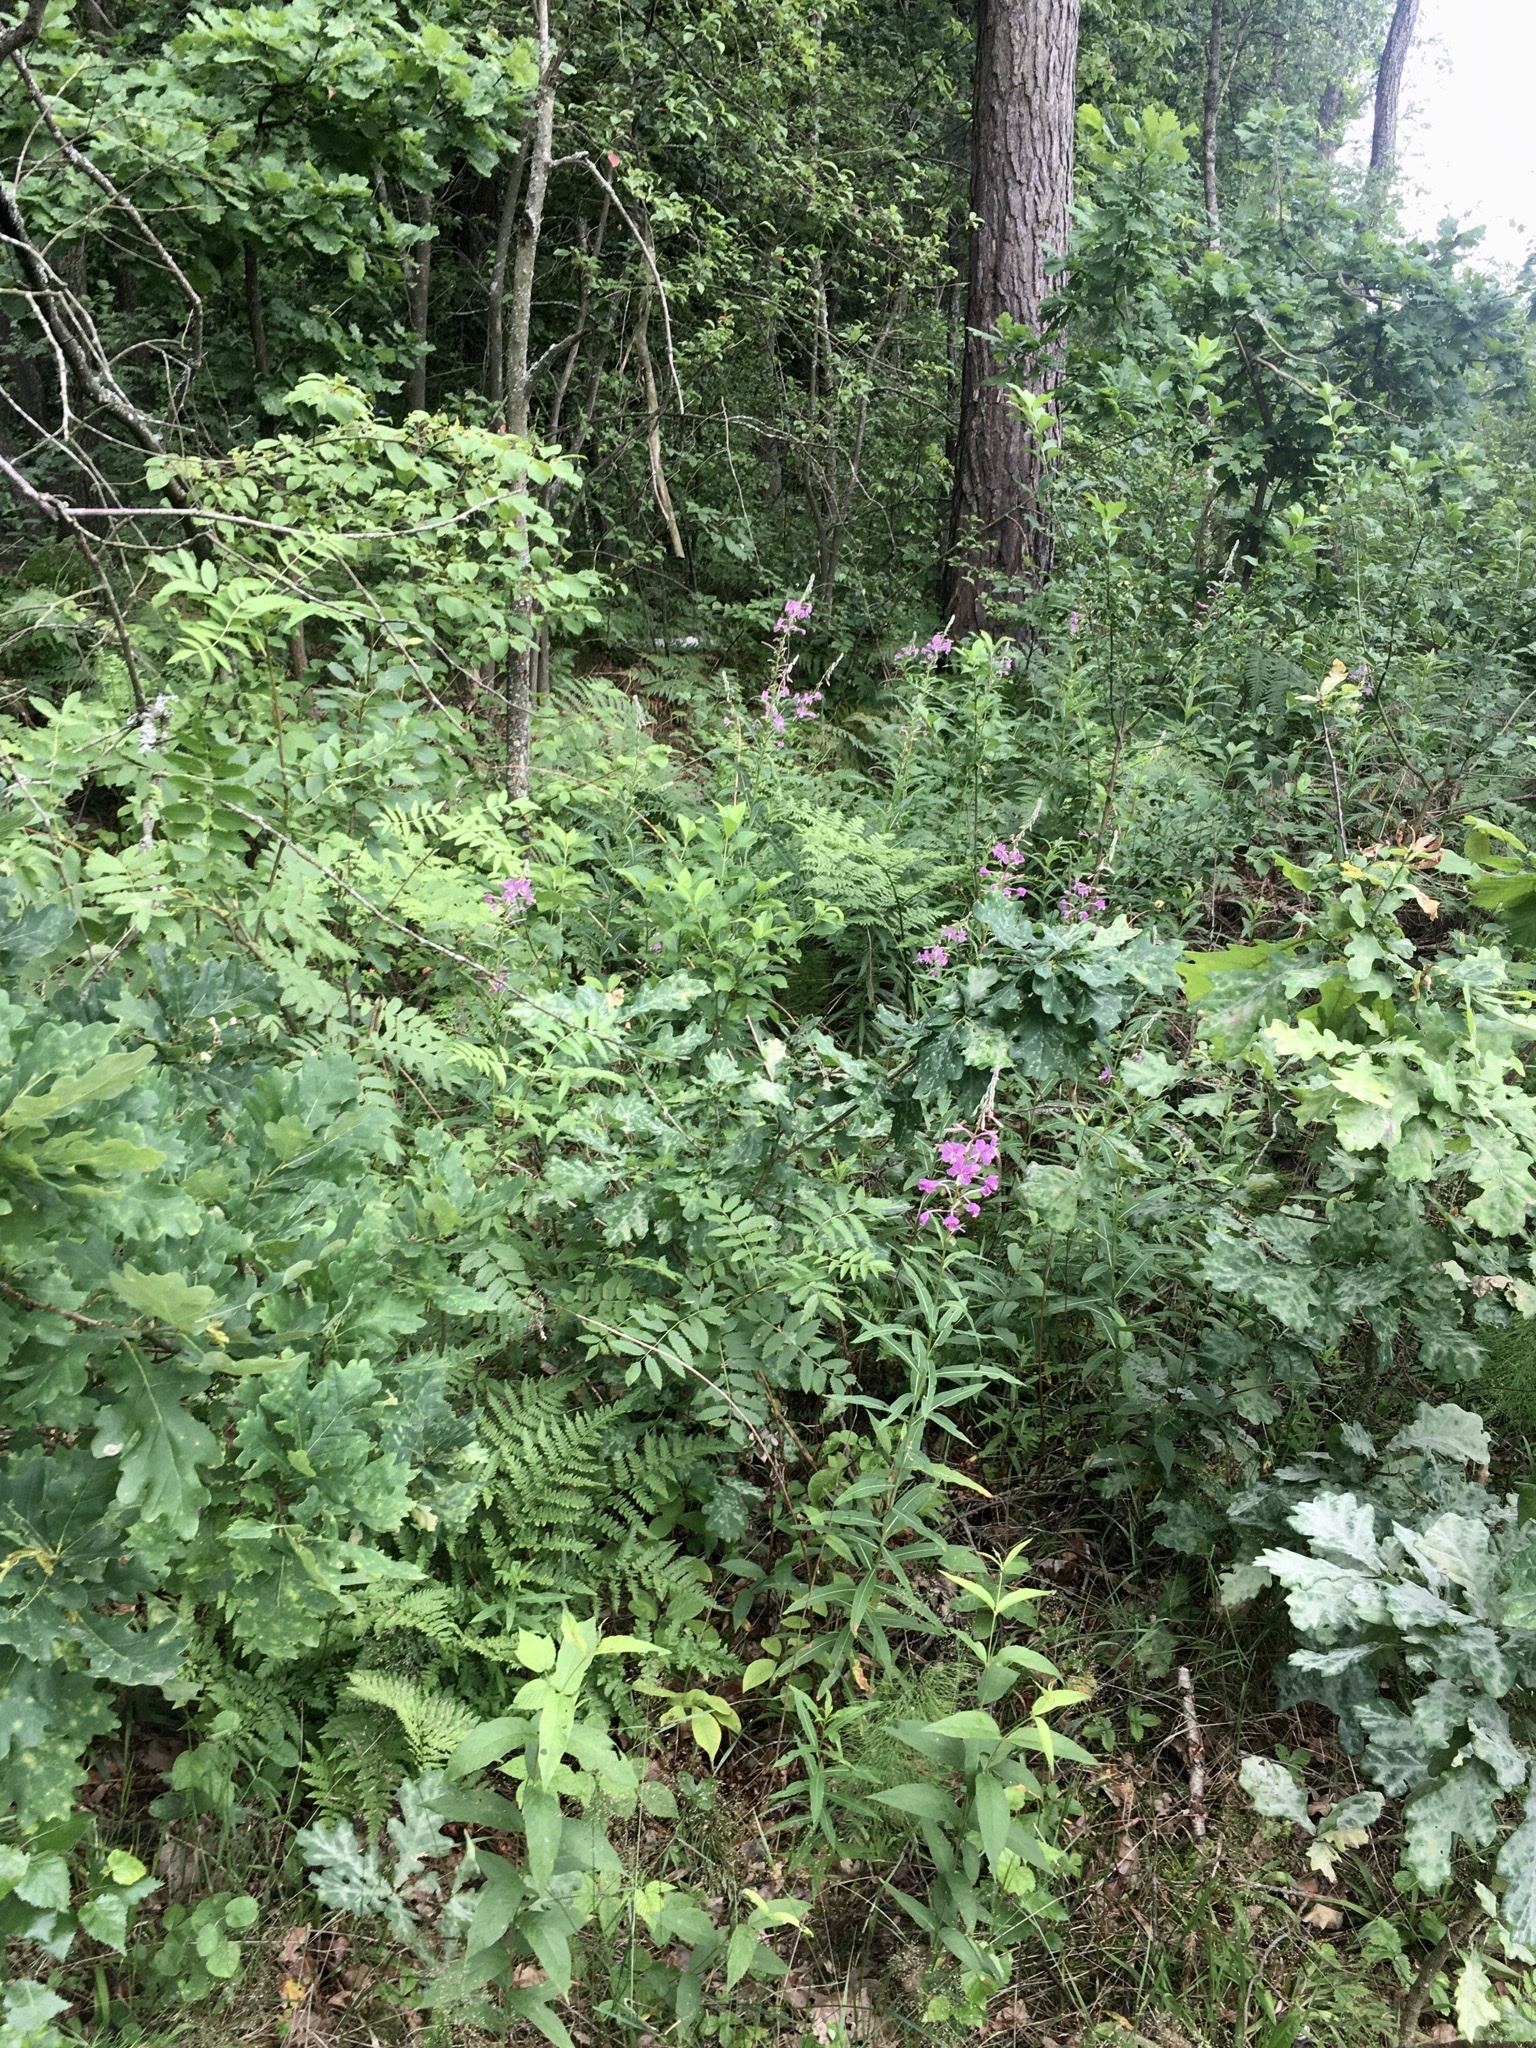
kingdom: Plantae
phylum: Tracheophyta
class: Magnoliopsida
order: Myrtales
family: Onagraceae
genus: Chamaenerion
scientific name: Chamaenerion angustifolium
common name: Fireweed
